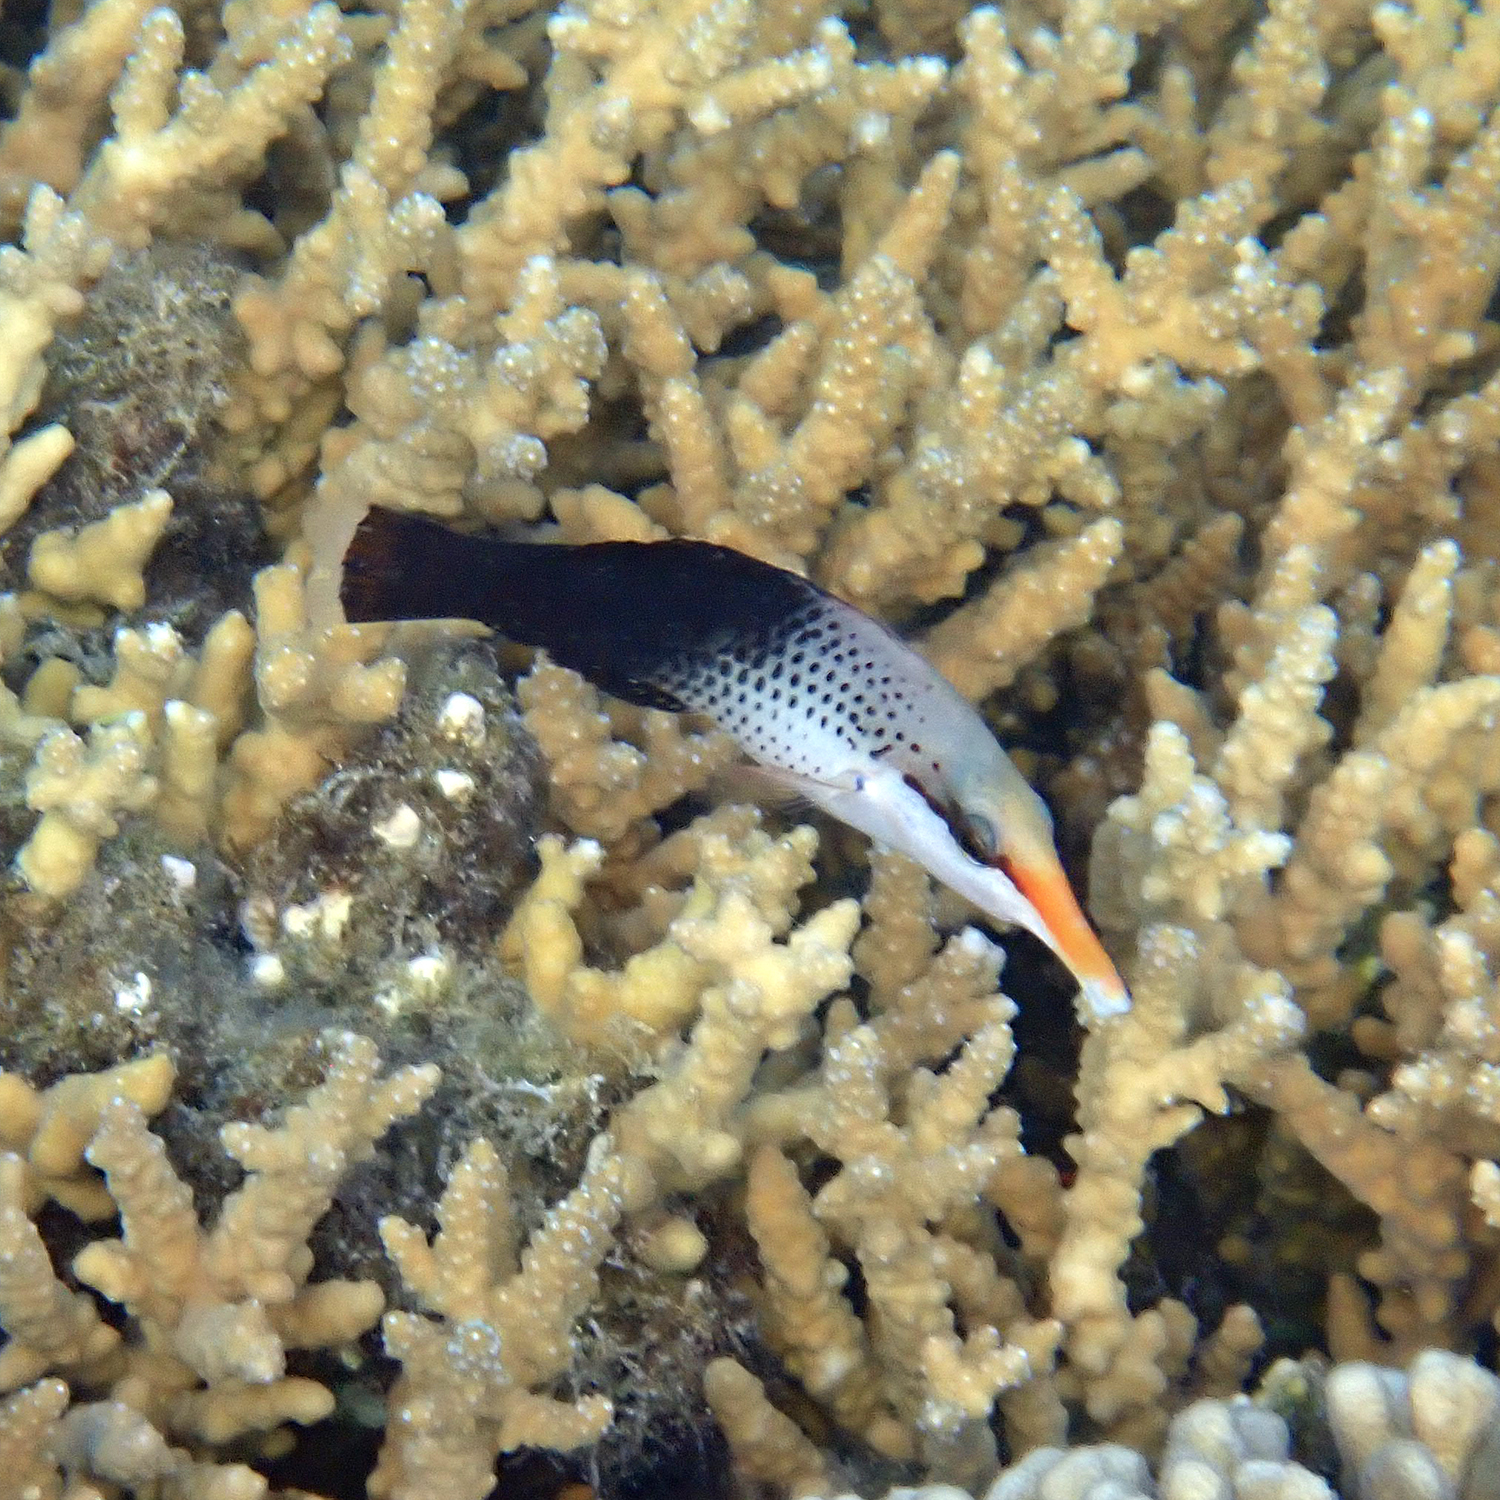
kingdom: Animalia
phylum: Chordata
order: Perciformes
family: Labridae
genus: Gomphosus
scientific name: Gomphosus varius
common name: Bird wrasse
